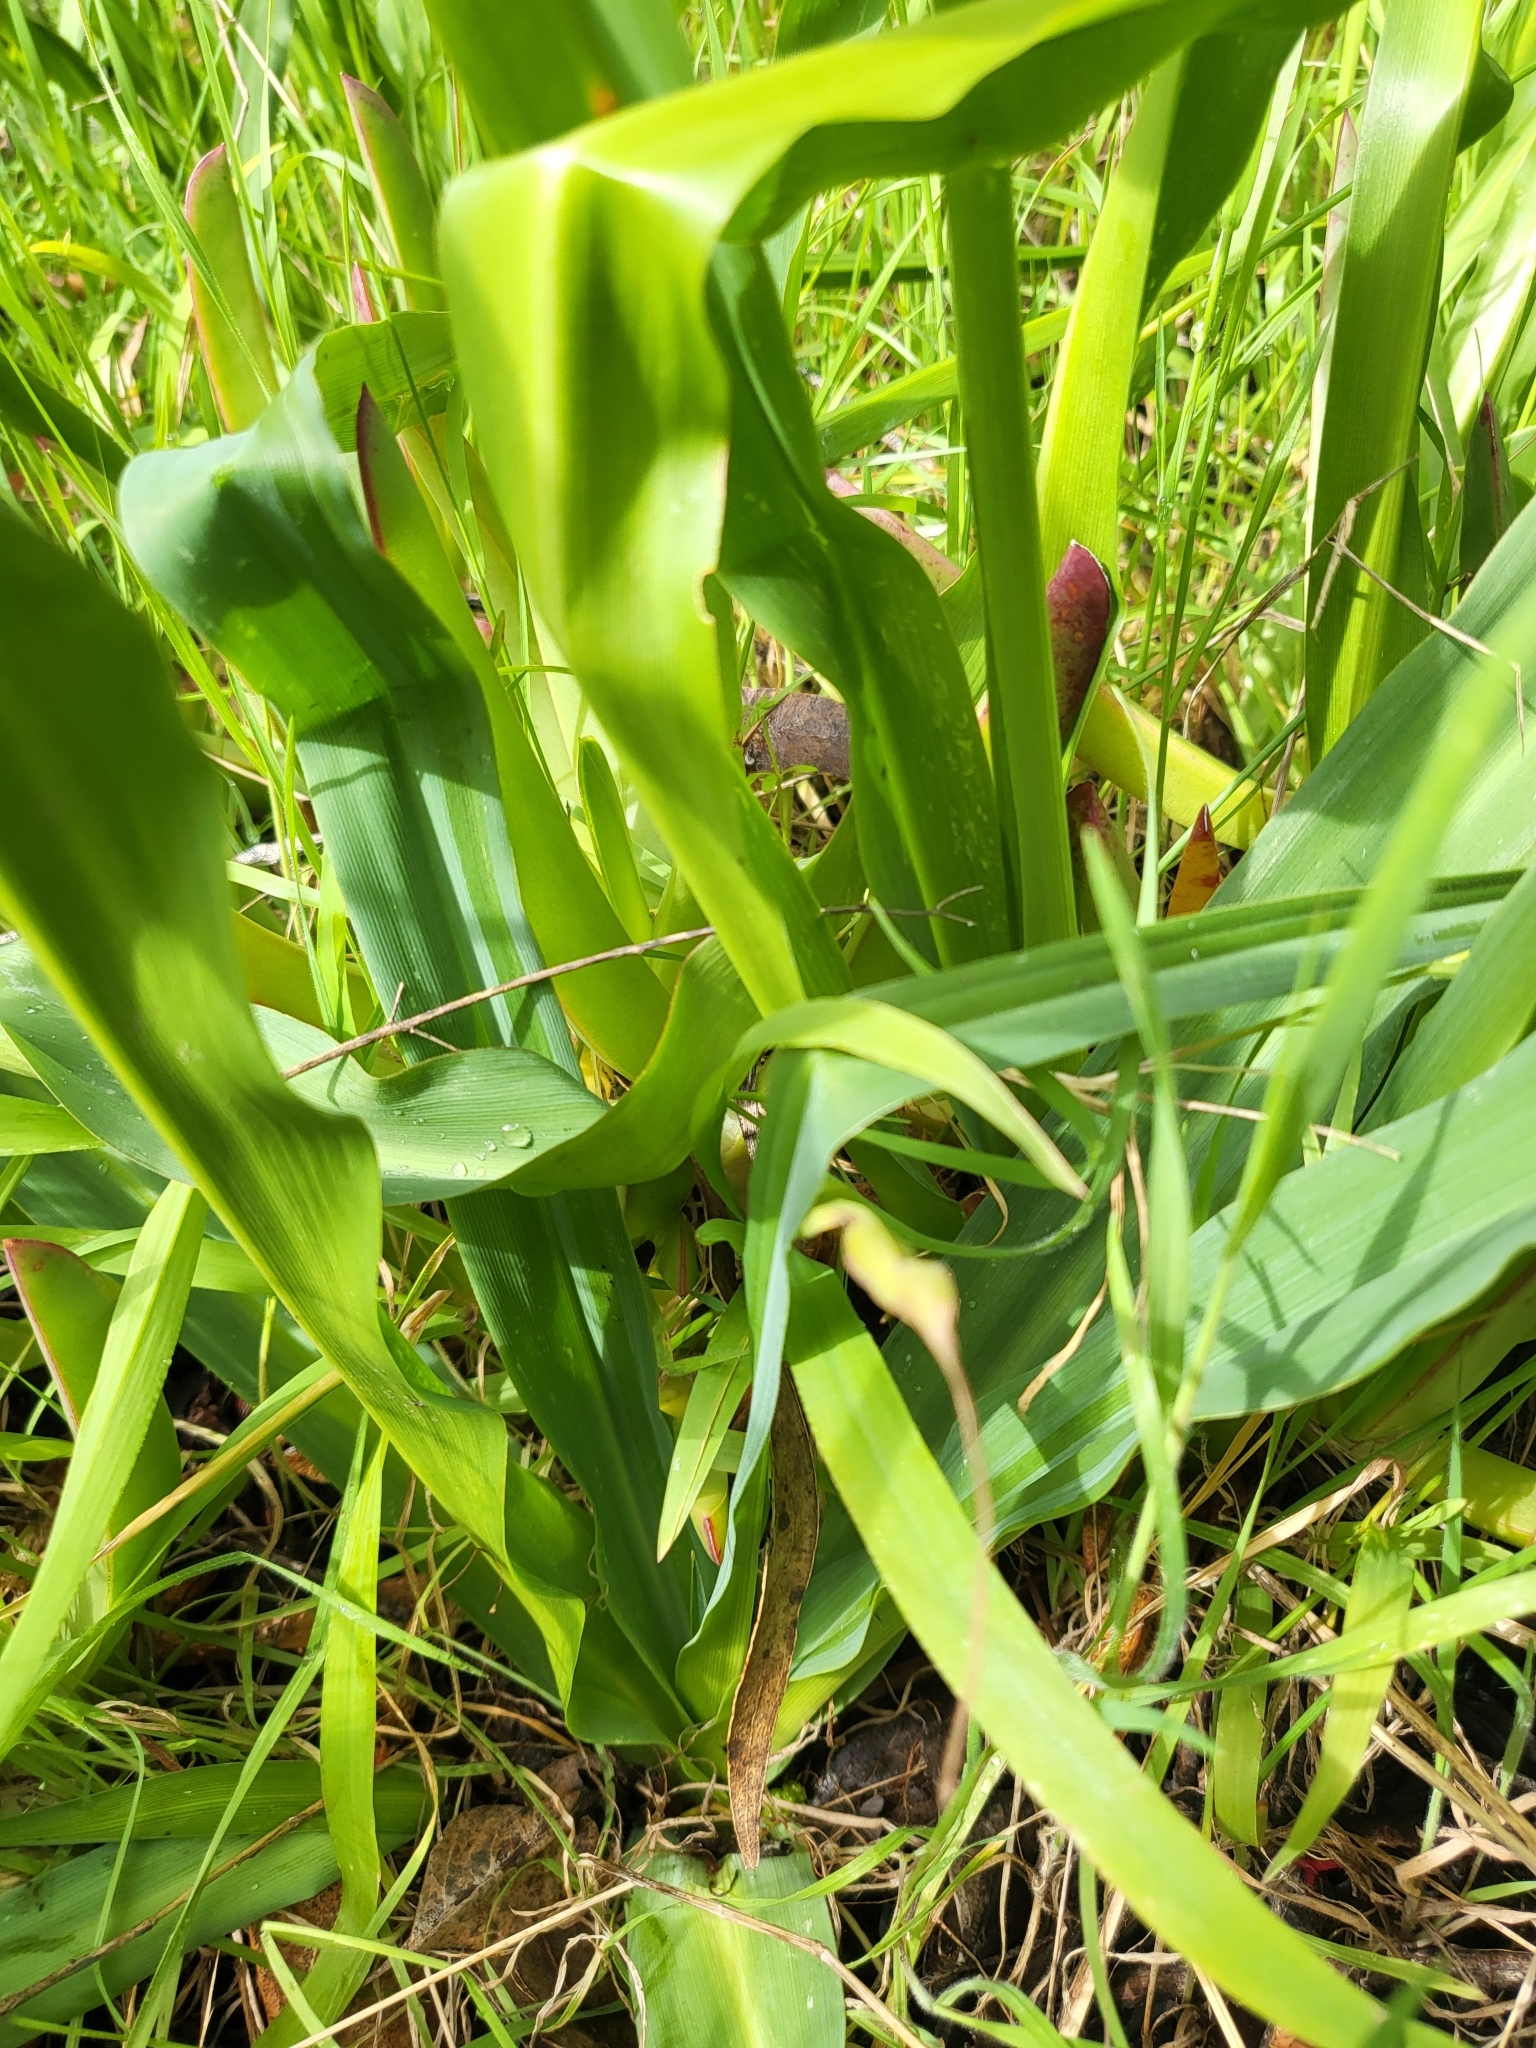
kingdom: Plantae
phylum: Tracheophyta
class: Liliopsida
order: Asparagales
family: Asparagaceae
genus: Chlorogalum
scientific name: Chlorogalum pomeridianum
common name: Amole
